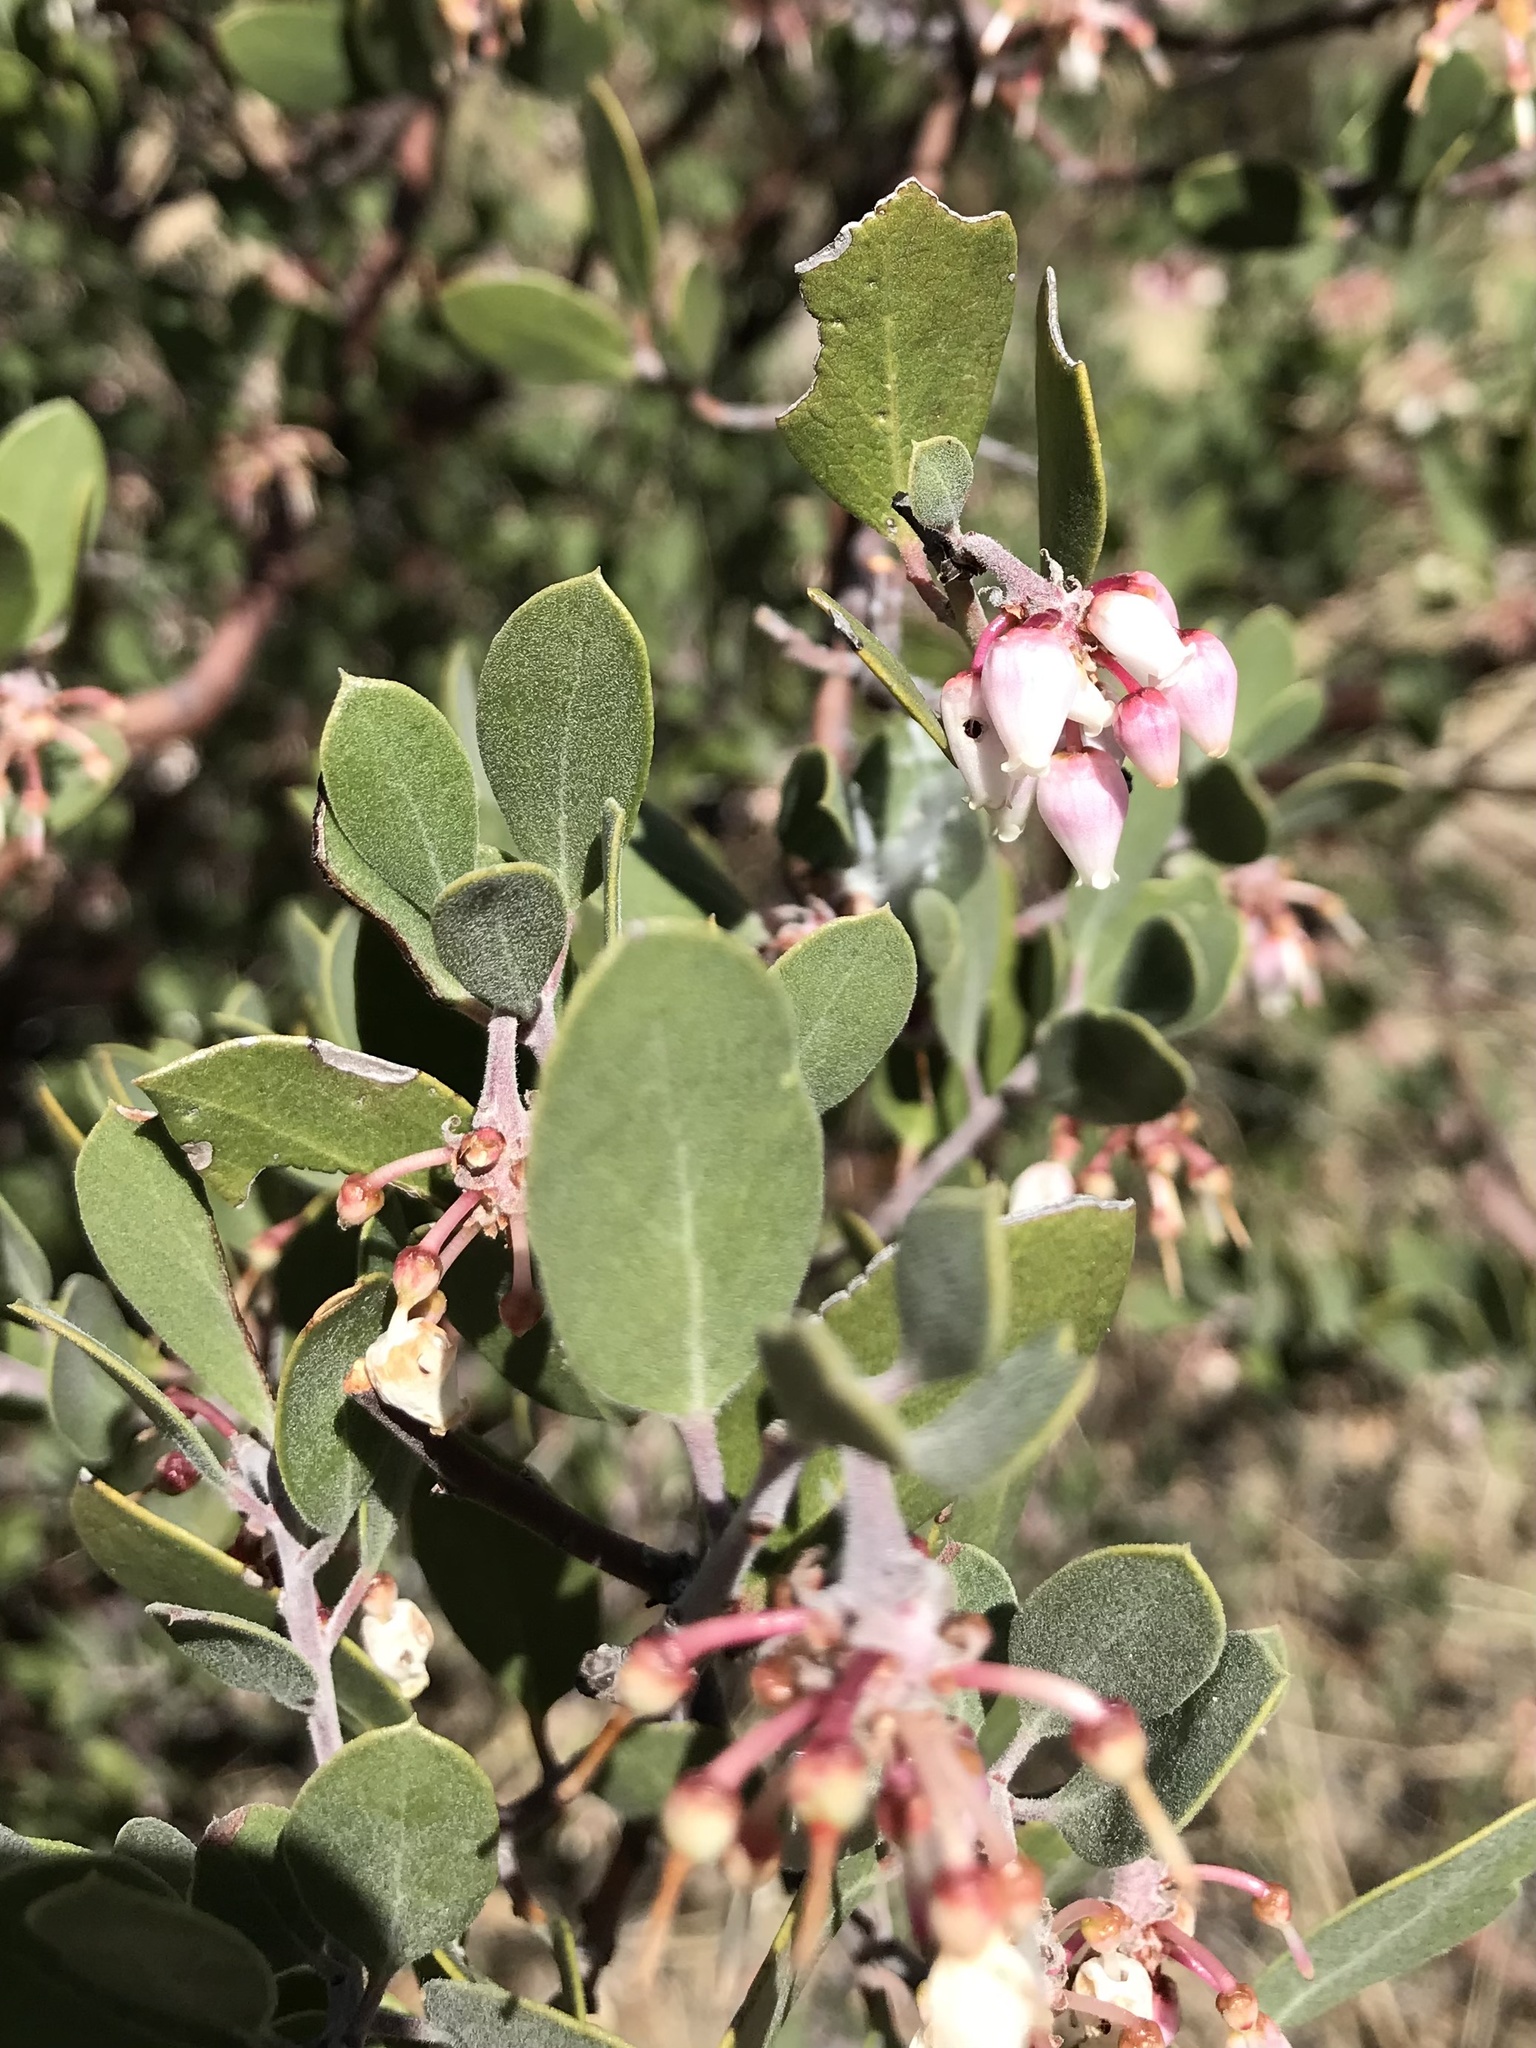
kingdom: Plantae
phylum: Tracheophyta
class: Magnoliopsida
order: Ericales
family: Ericaceae
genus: Arctostaphylos
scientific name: Arctostaphylos pungens
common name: Mexican manzanita
